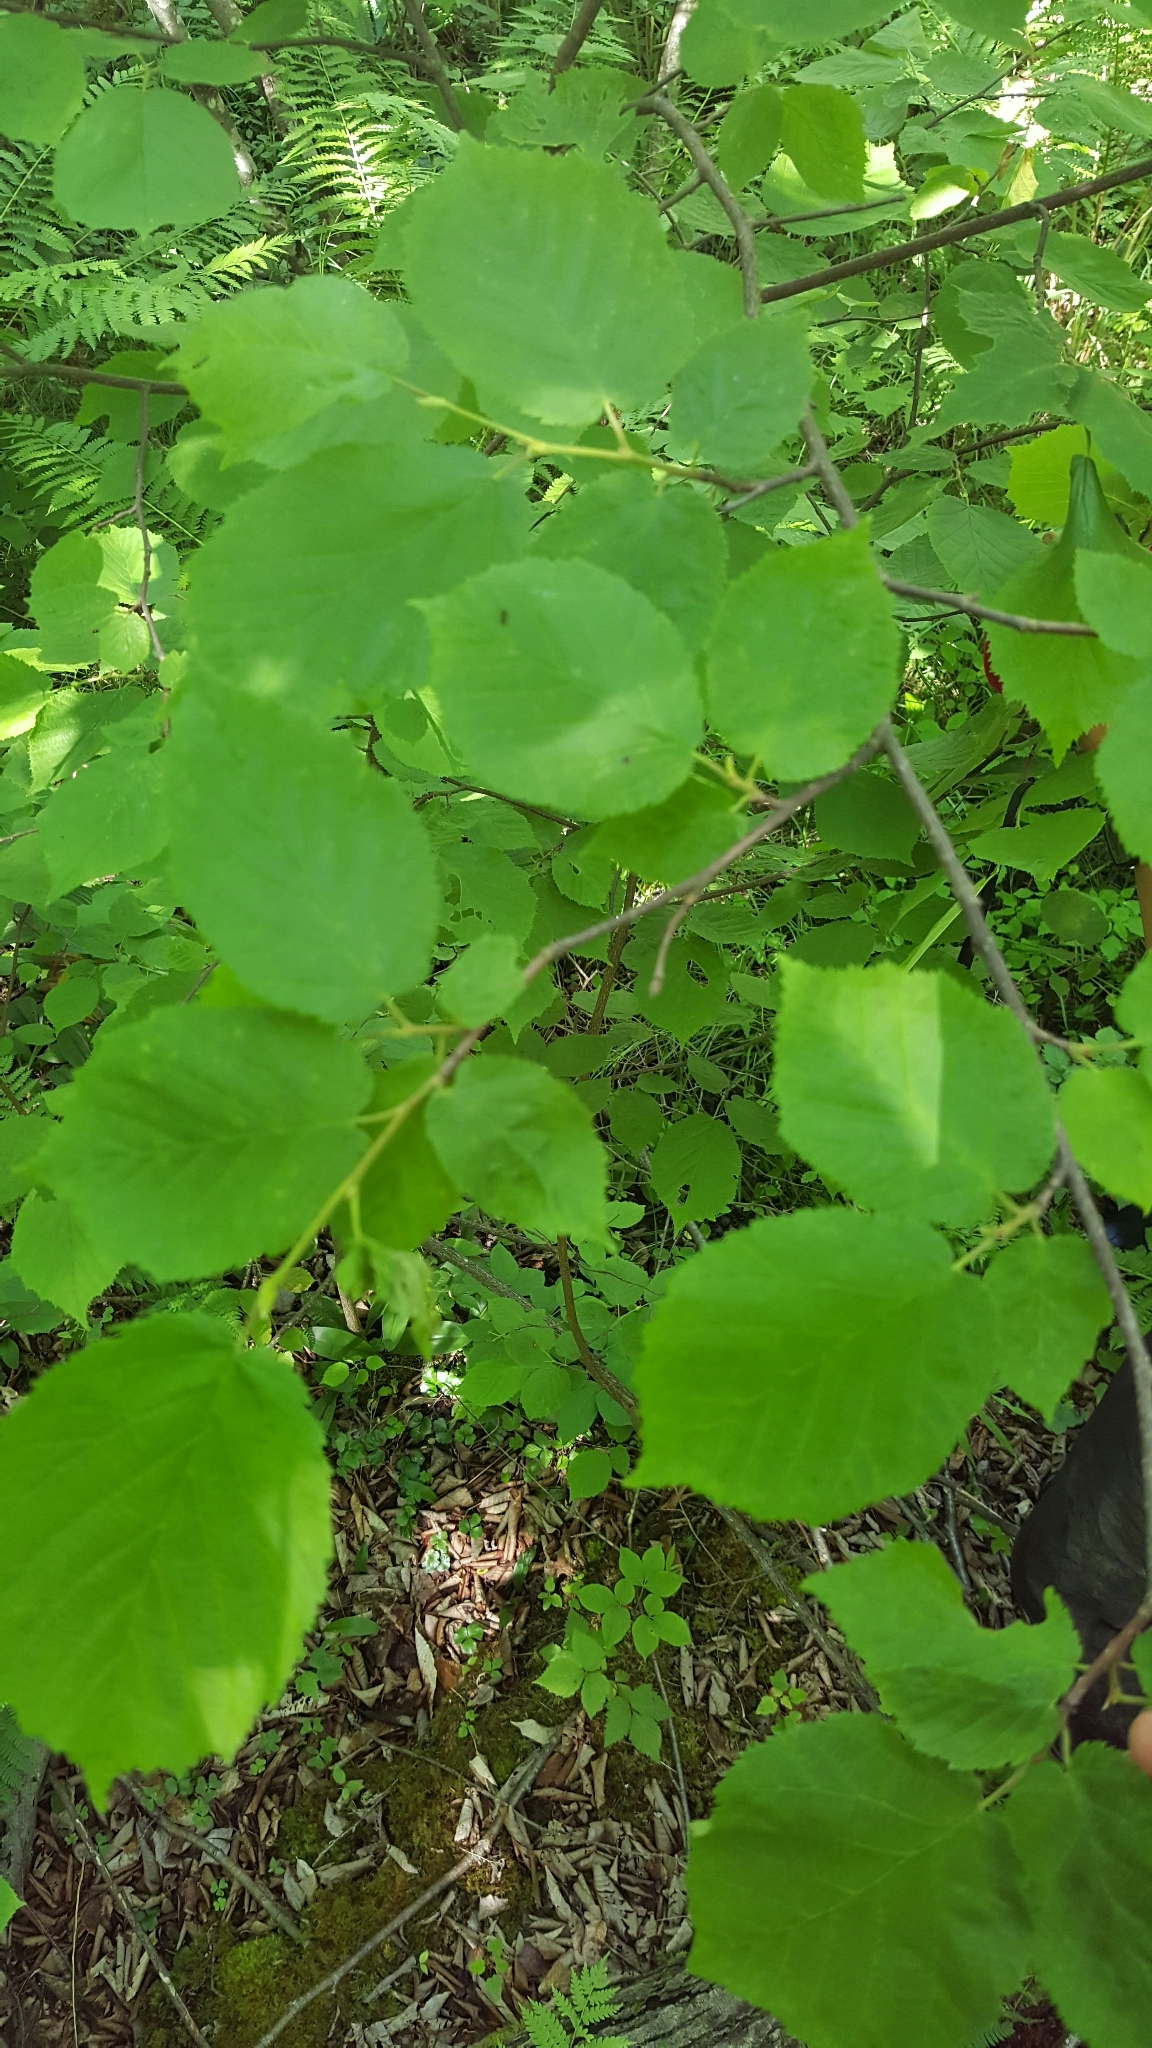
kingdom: Plantae
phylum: Tracheophyta
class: Magnoliopsida
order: Fagales
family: Betulaceae
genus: Corylus
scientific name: Corylus cornuta
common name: Beaked hazel
